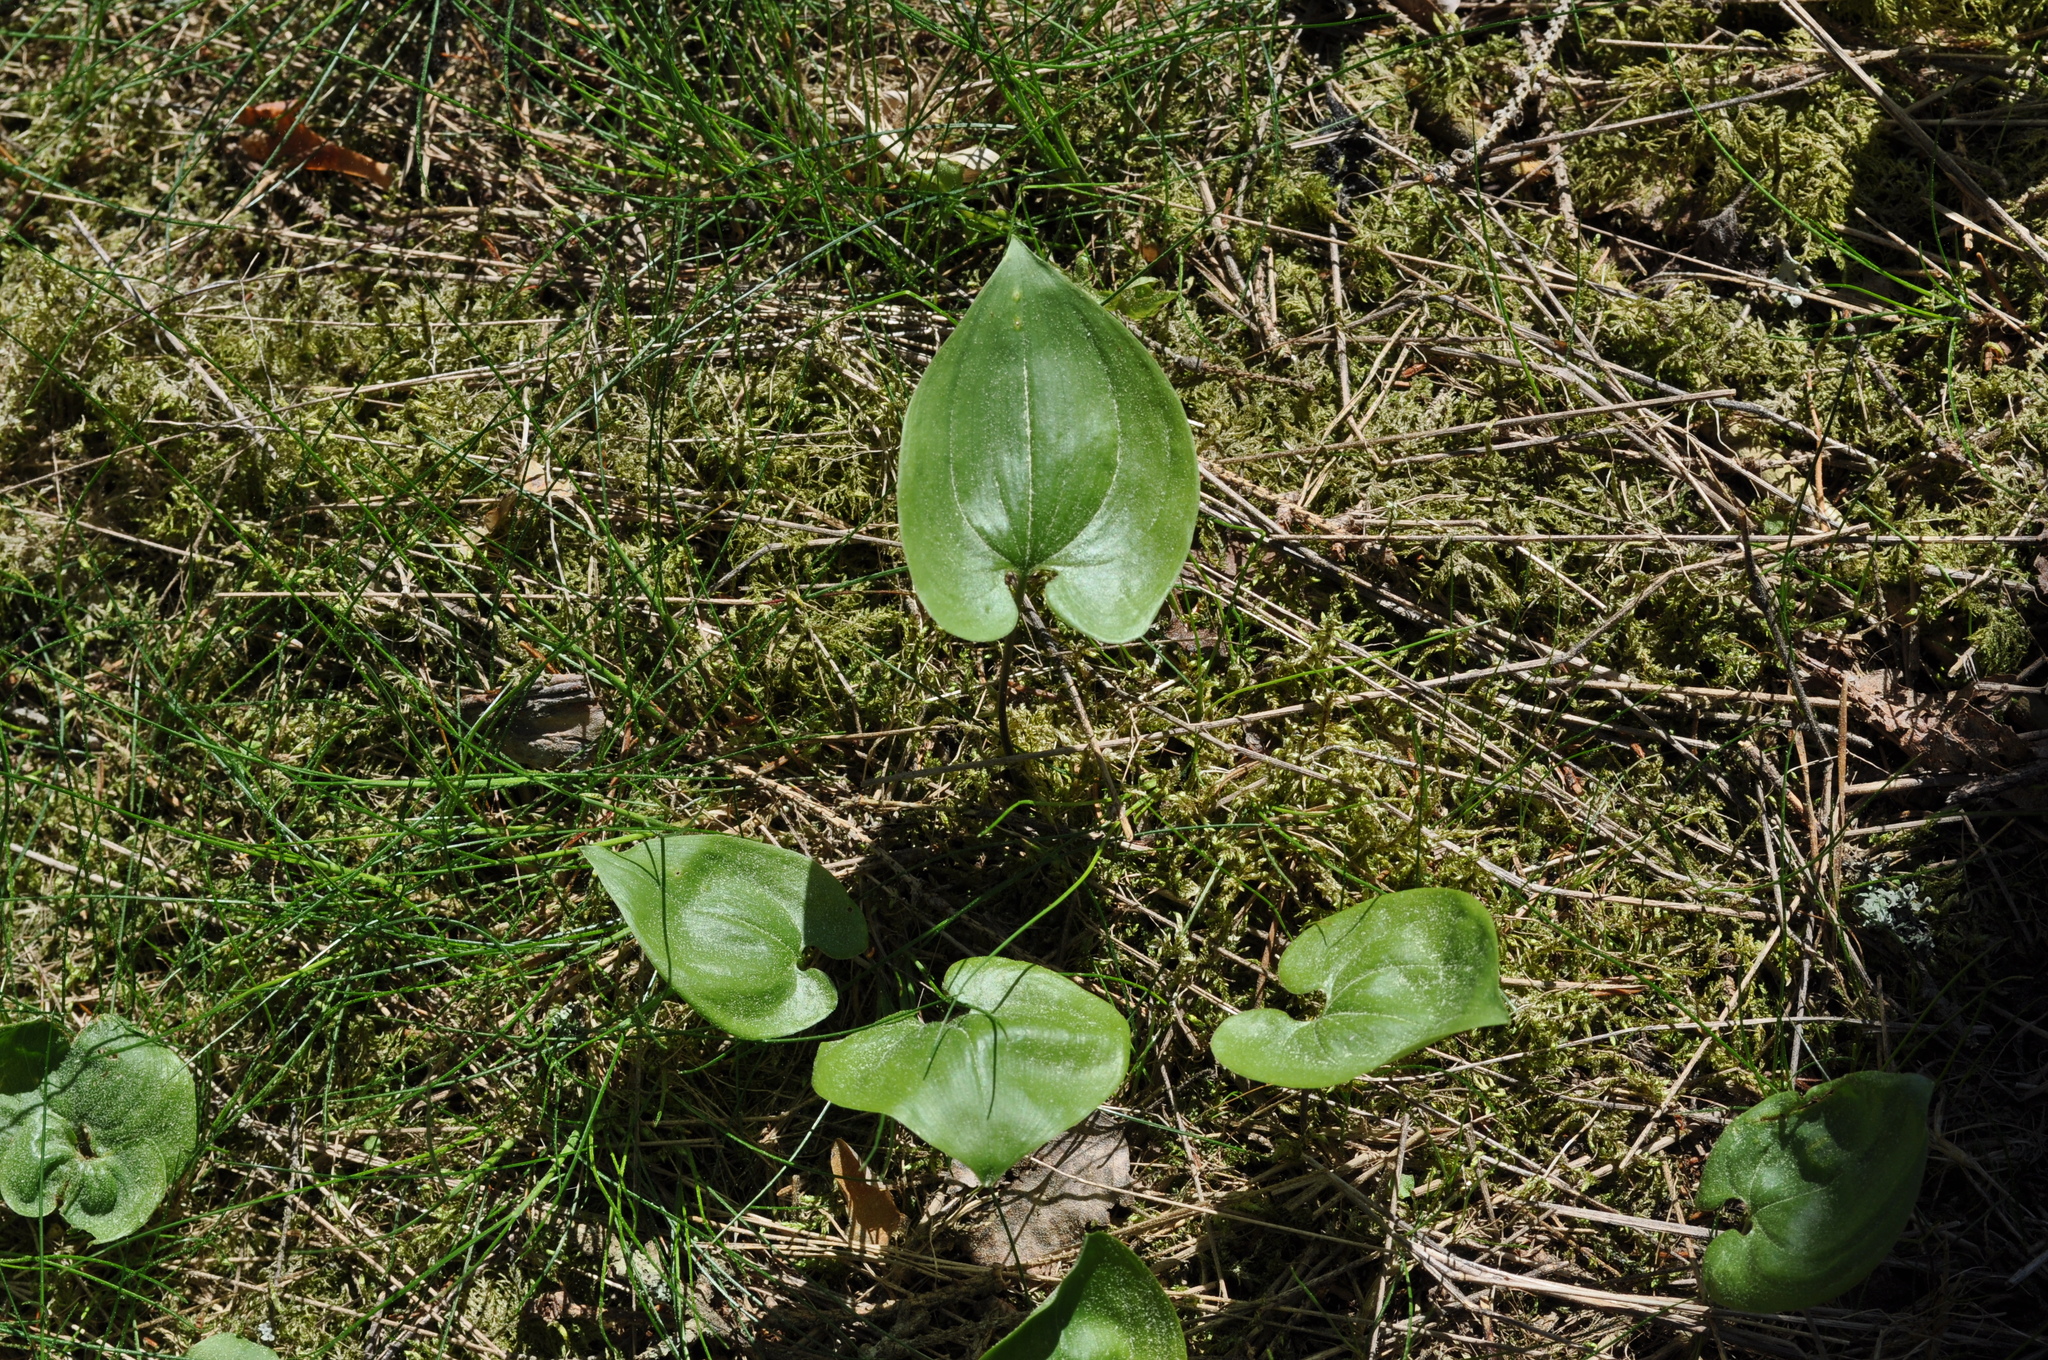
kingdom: Plantae
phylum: Tracheophyta
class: Liliopsida
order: Asparagales
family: Asparagaceae
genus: Maianthemum
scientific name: Maianthemum bifolium
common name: May lily
